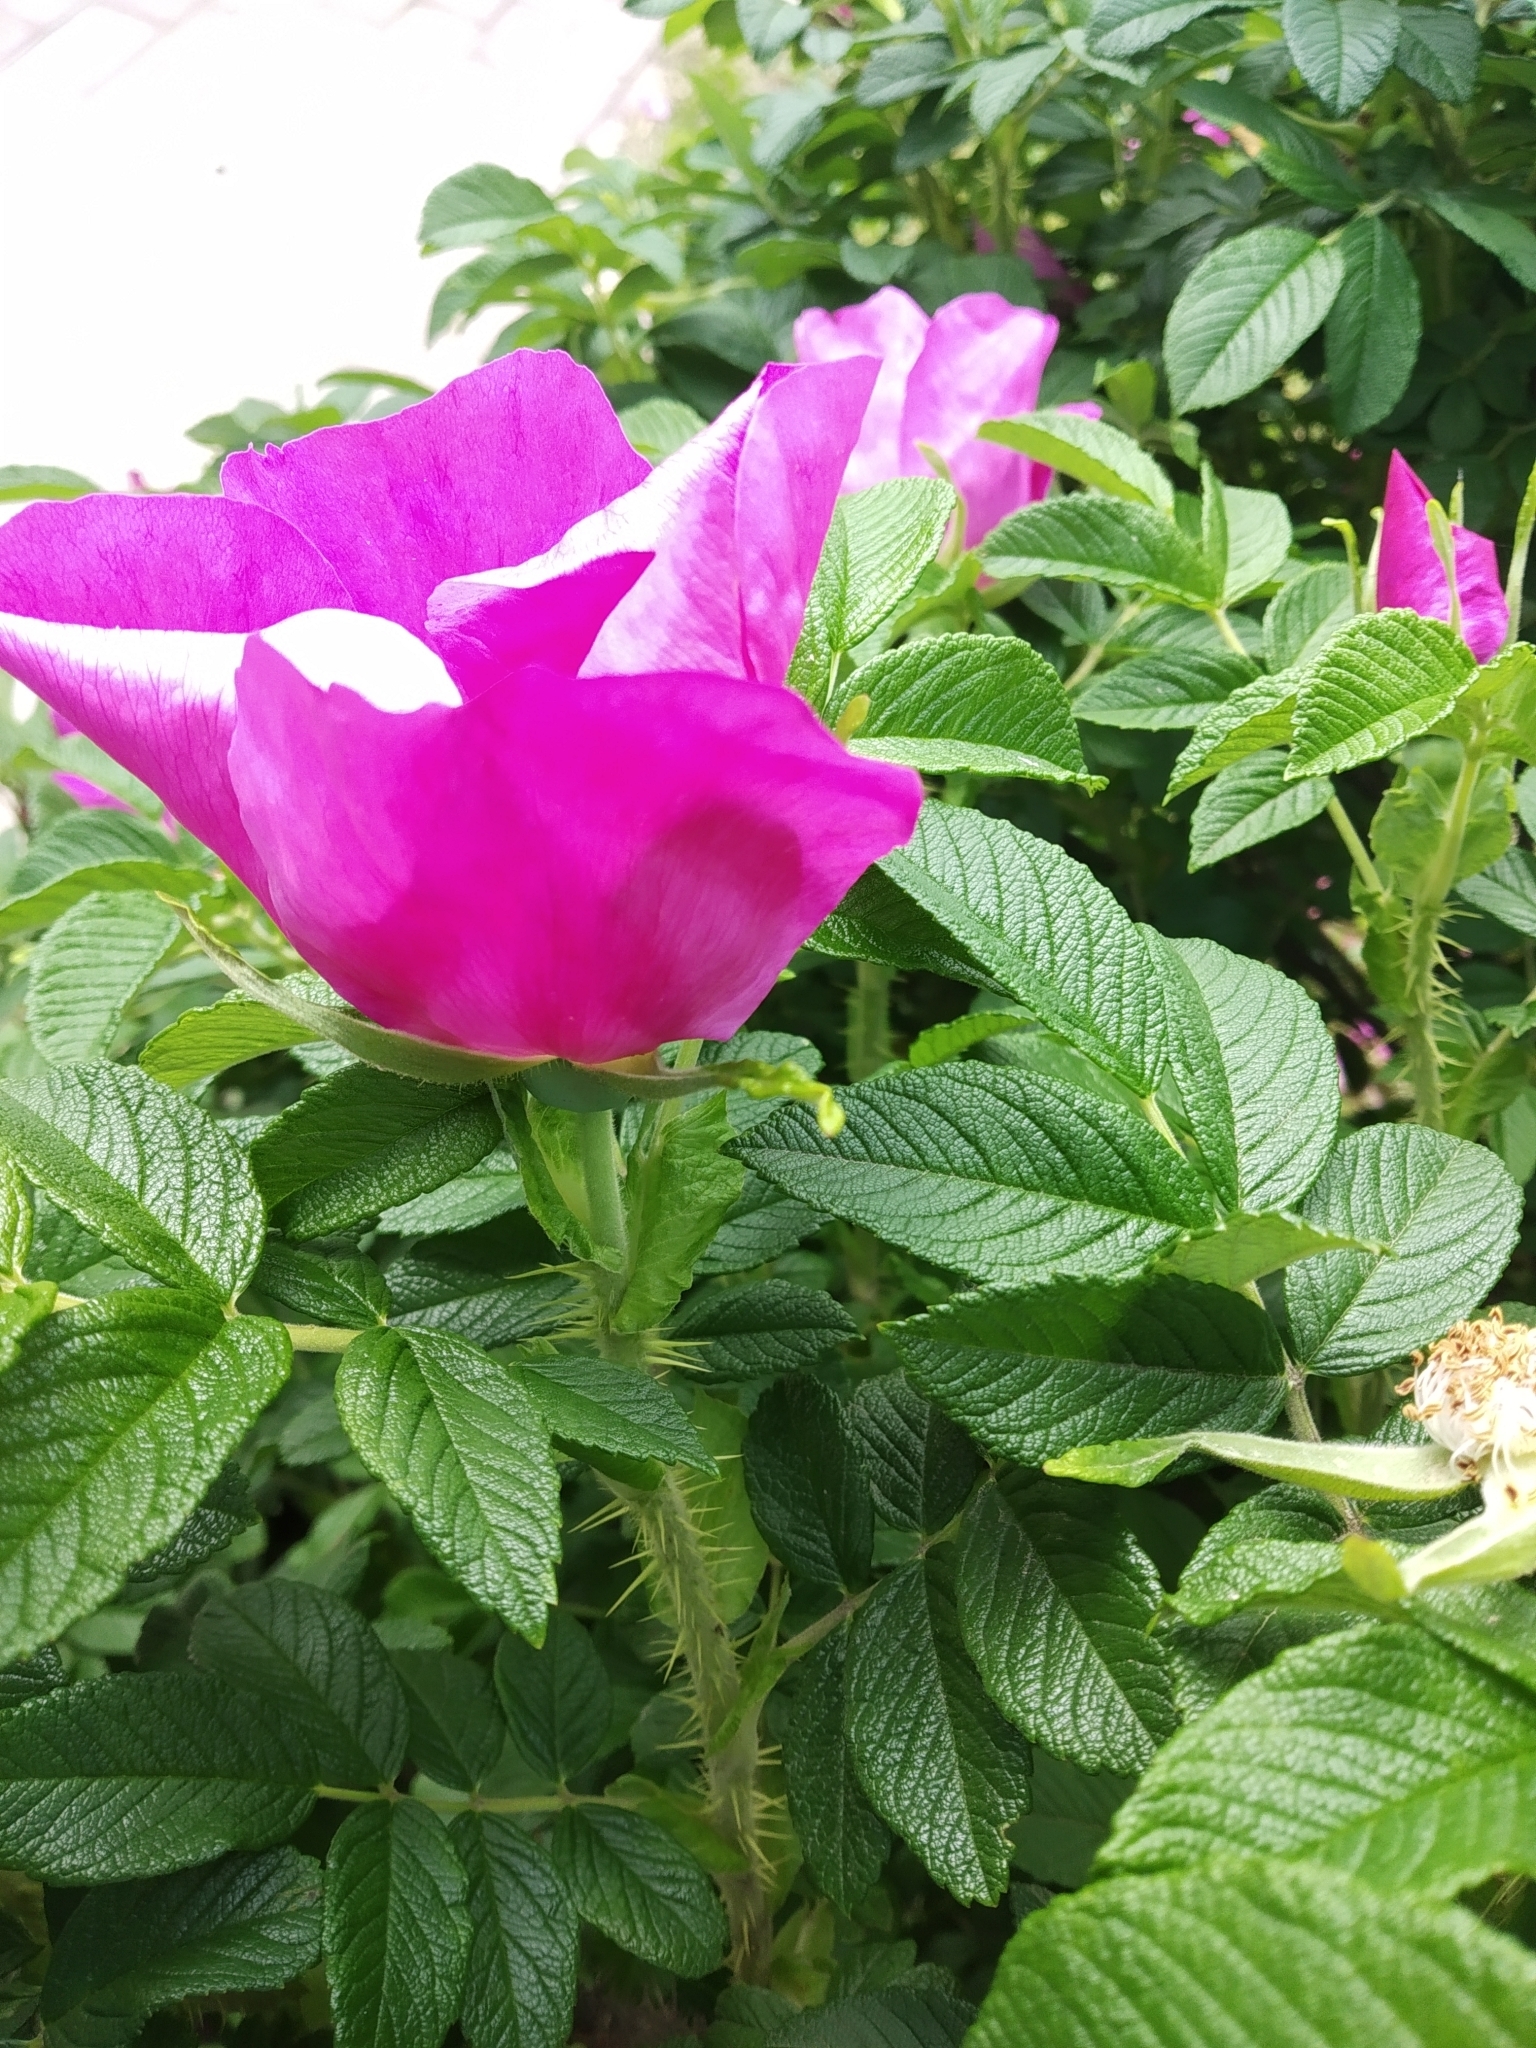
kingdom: Plantae
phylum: Tracheophyta
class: Magnoliopsida
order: Rosales
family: Rosaceae
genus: Rosa
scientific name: Rosa rugosa
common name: Japanese rose
